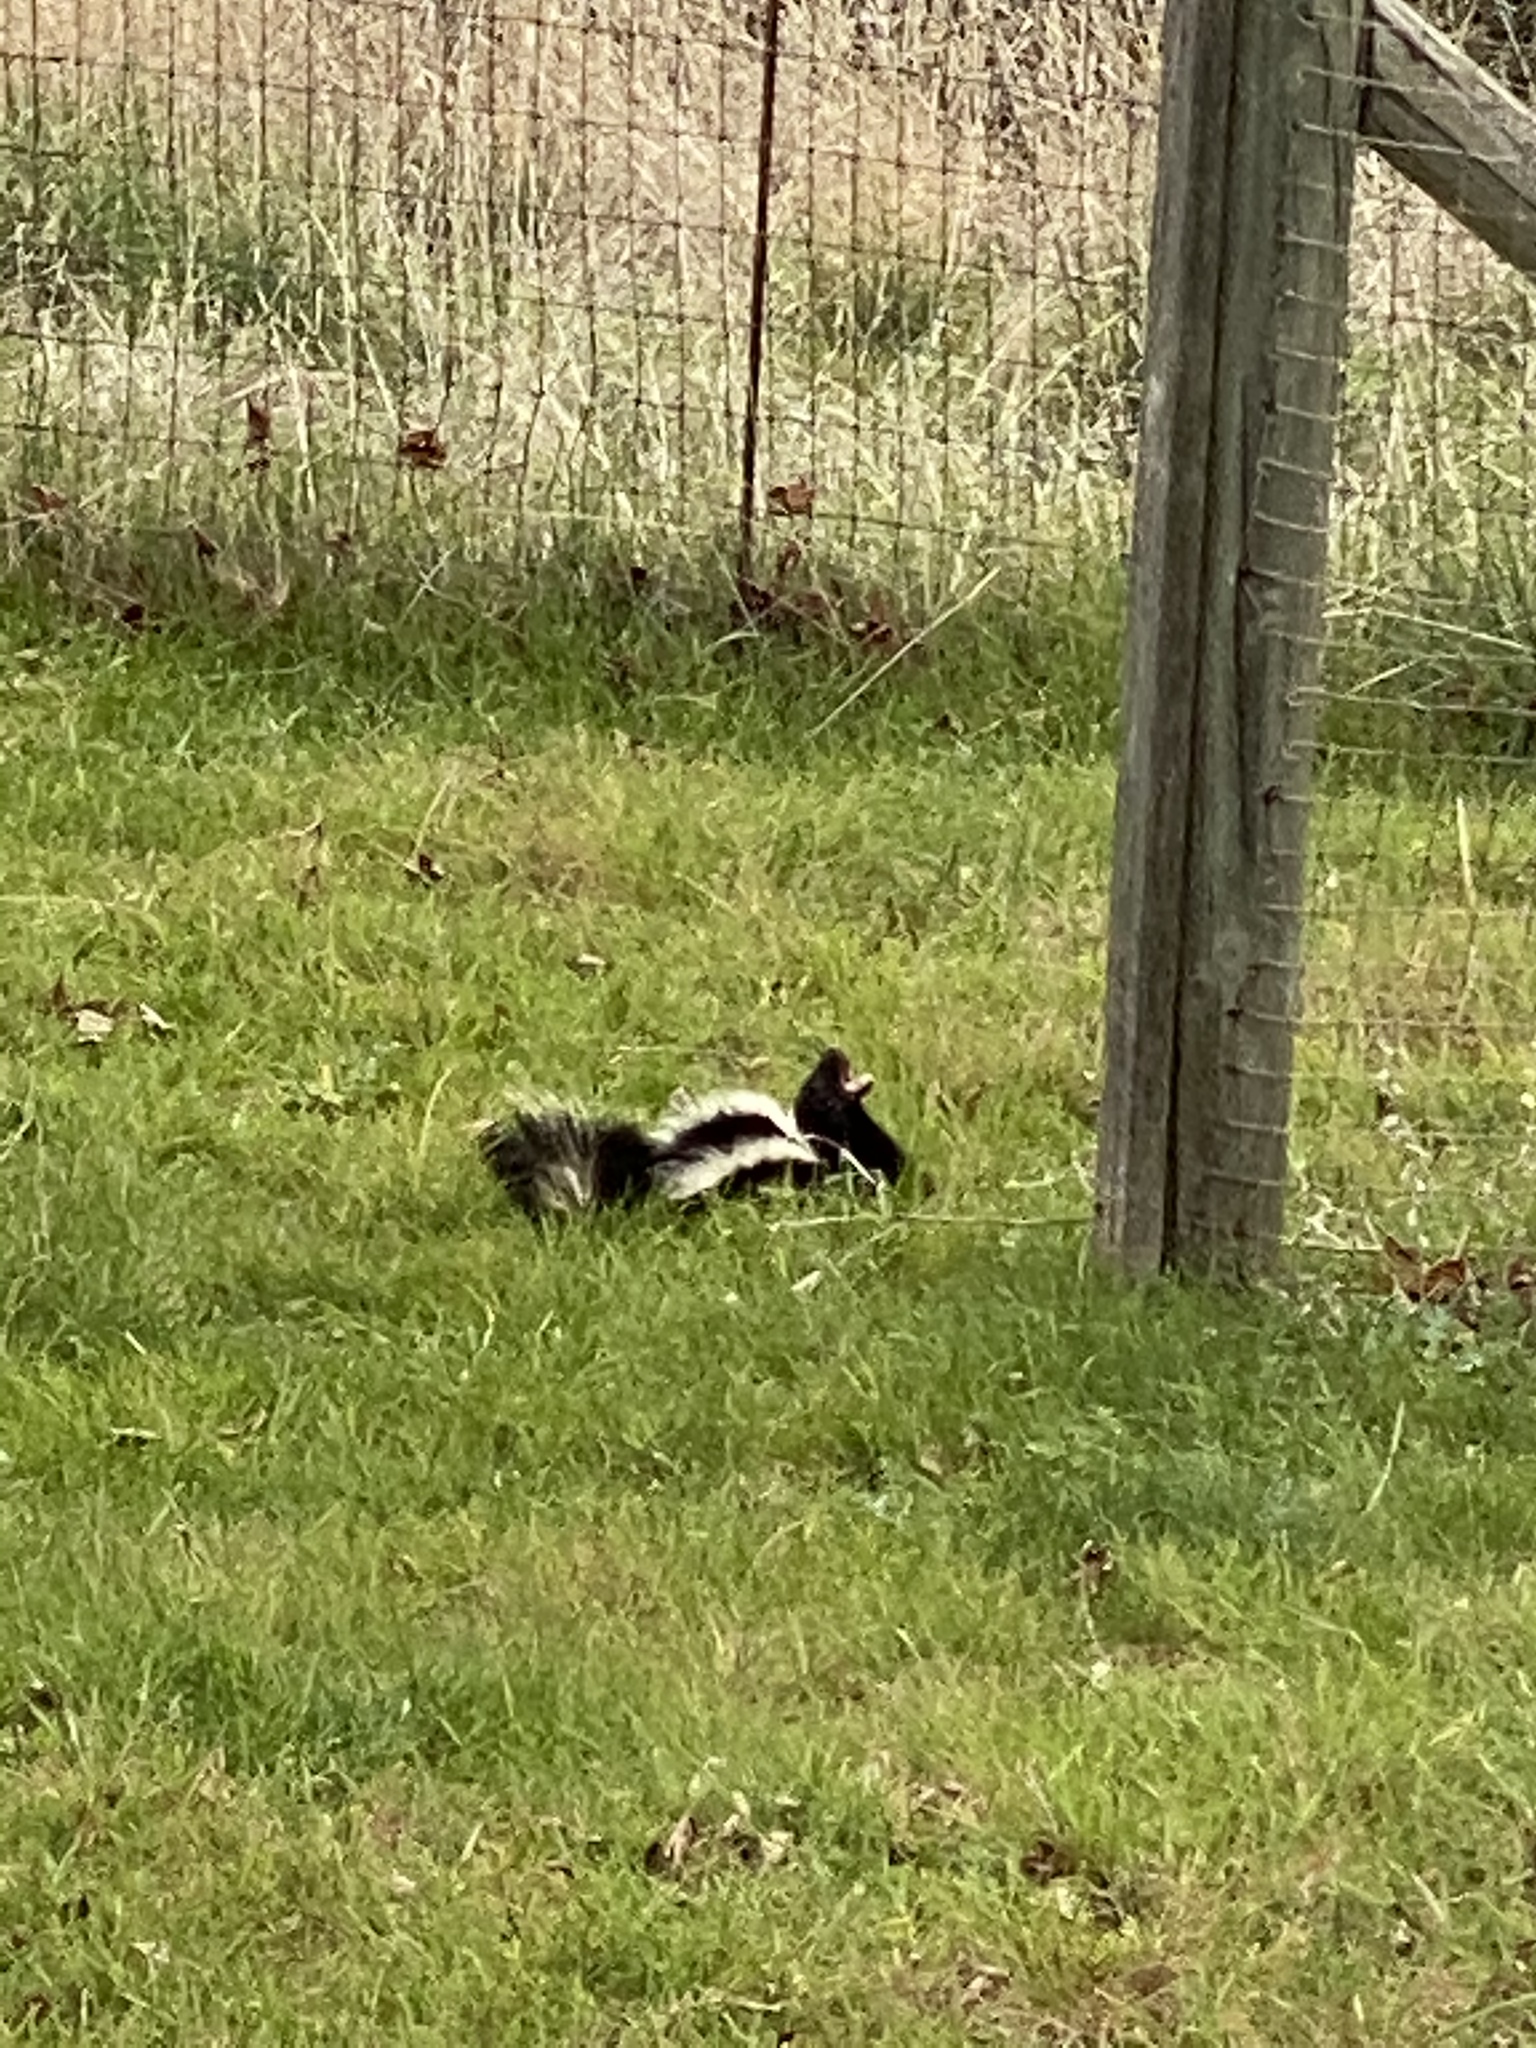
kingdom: Animalia
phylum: Chordata
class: Mammalia
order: Carnivora
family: Mephitidae
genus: Mephitis
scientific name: Mephitis mephitis
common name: Striped skunk
